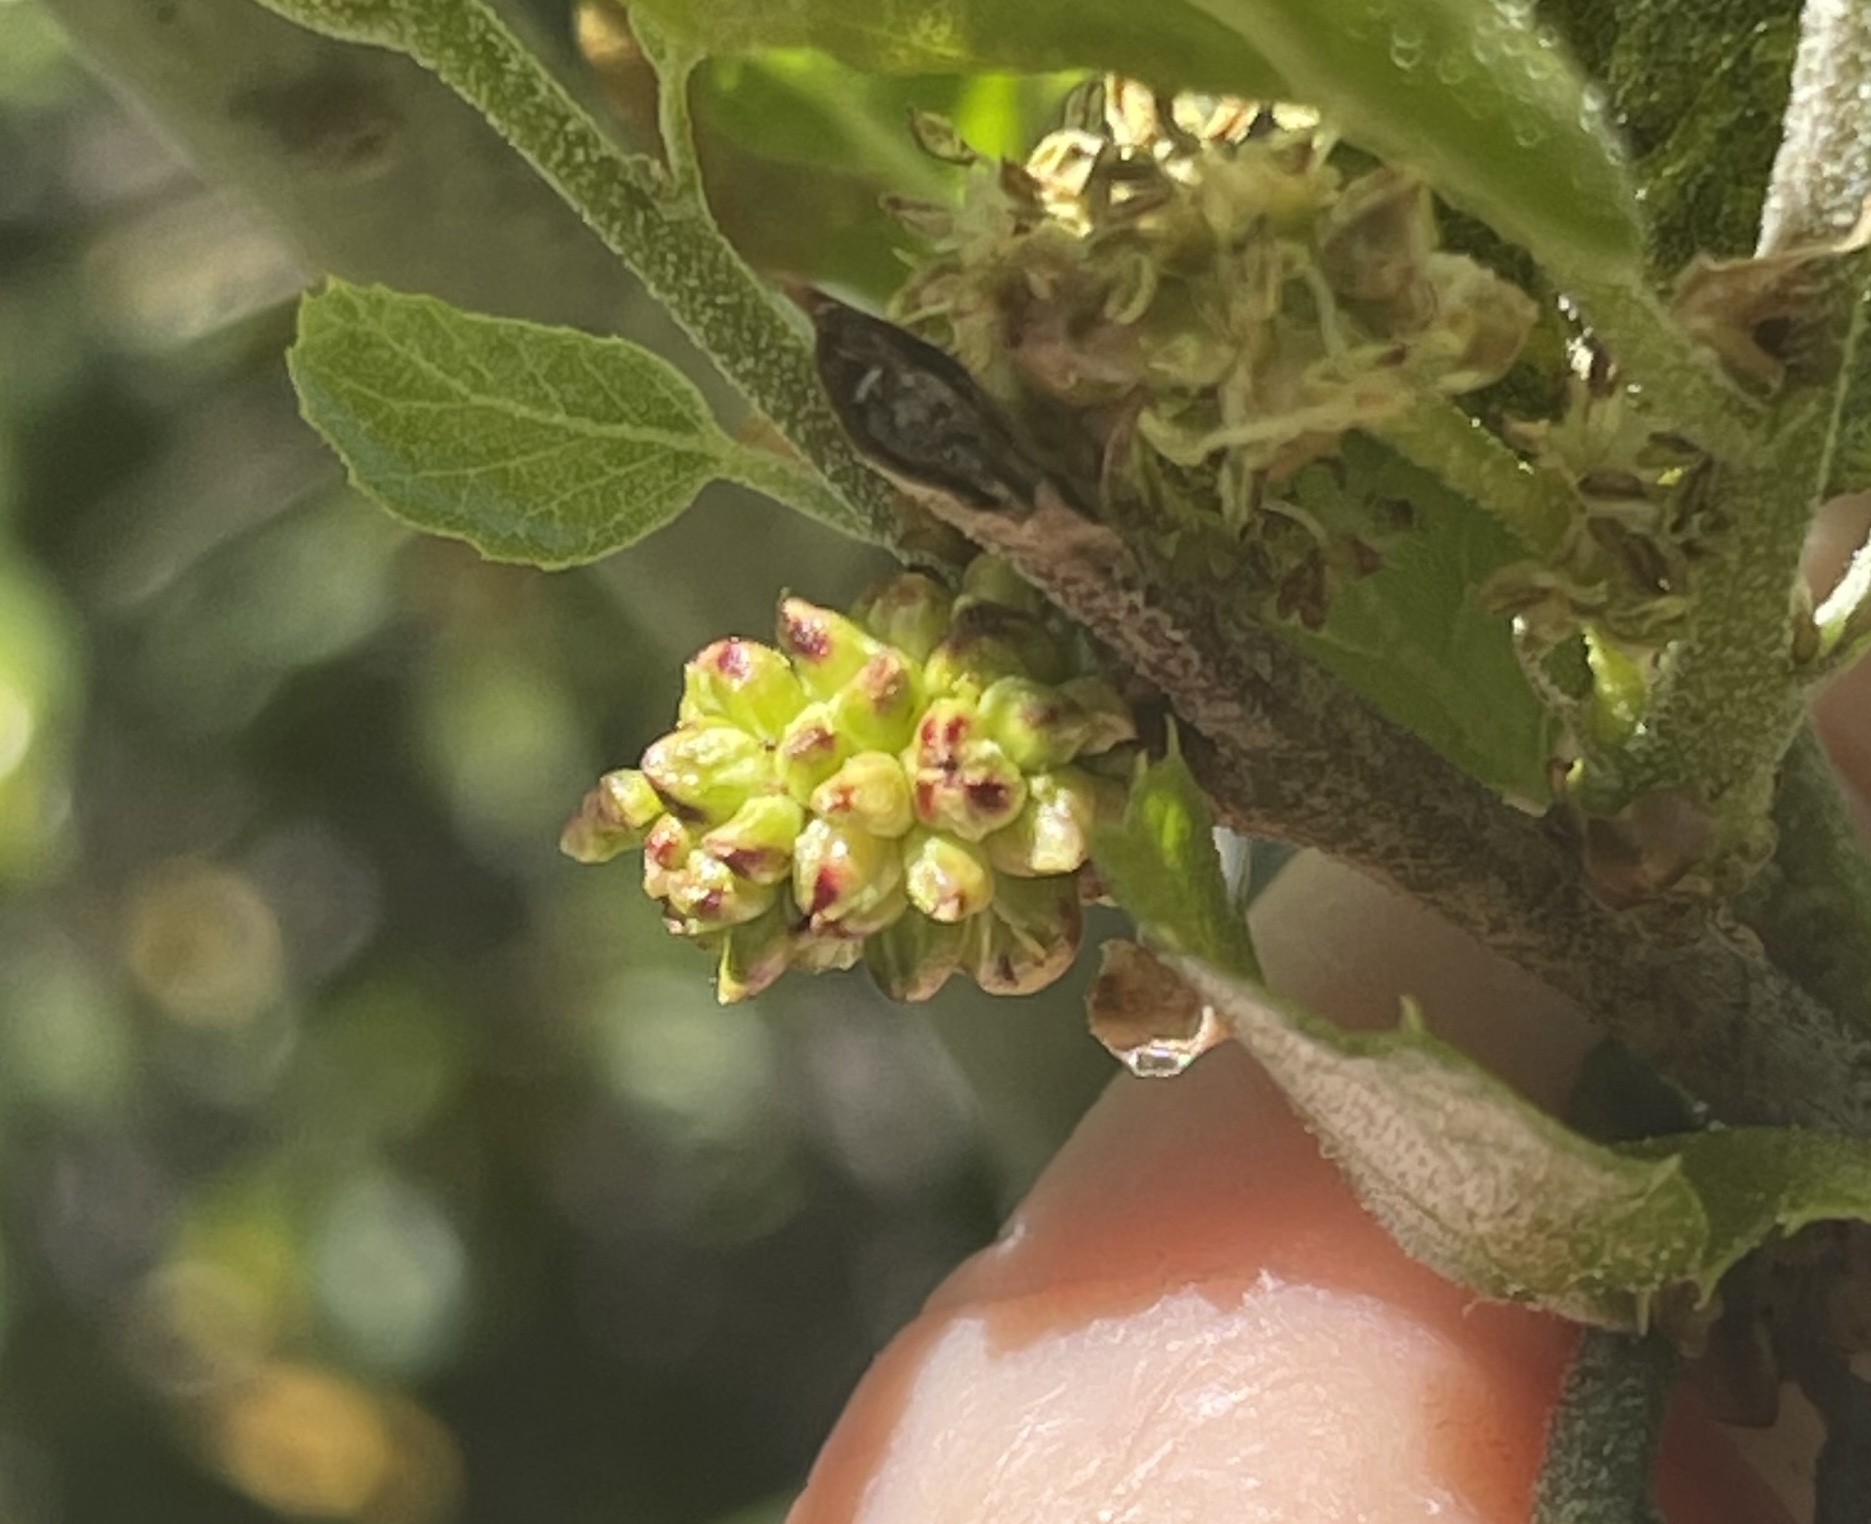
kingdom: Animalia
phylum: Arthropoda
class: Insecta
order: Hymenoptera
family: Cynipidae
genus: Callirhytis
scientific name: Callirhytis
